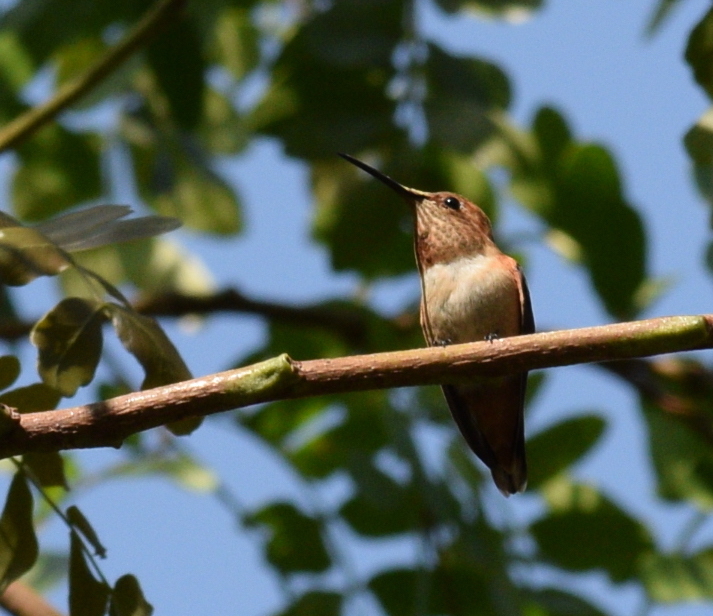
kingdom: Animalia
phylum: Chordata
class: Aves
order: Apodiformes
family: Trochilidae
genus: Selasphorus
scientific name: Selasphorus sasin
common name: Allen's hummingbird
